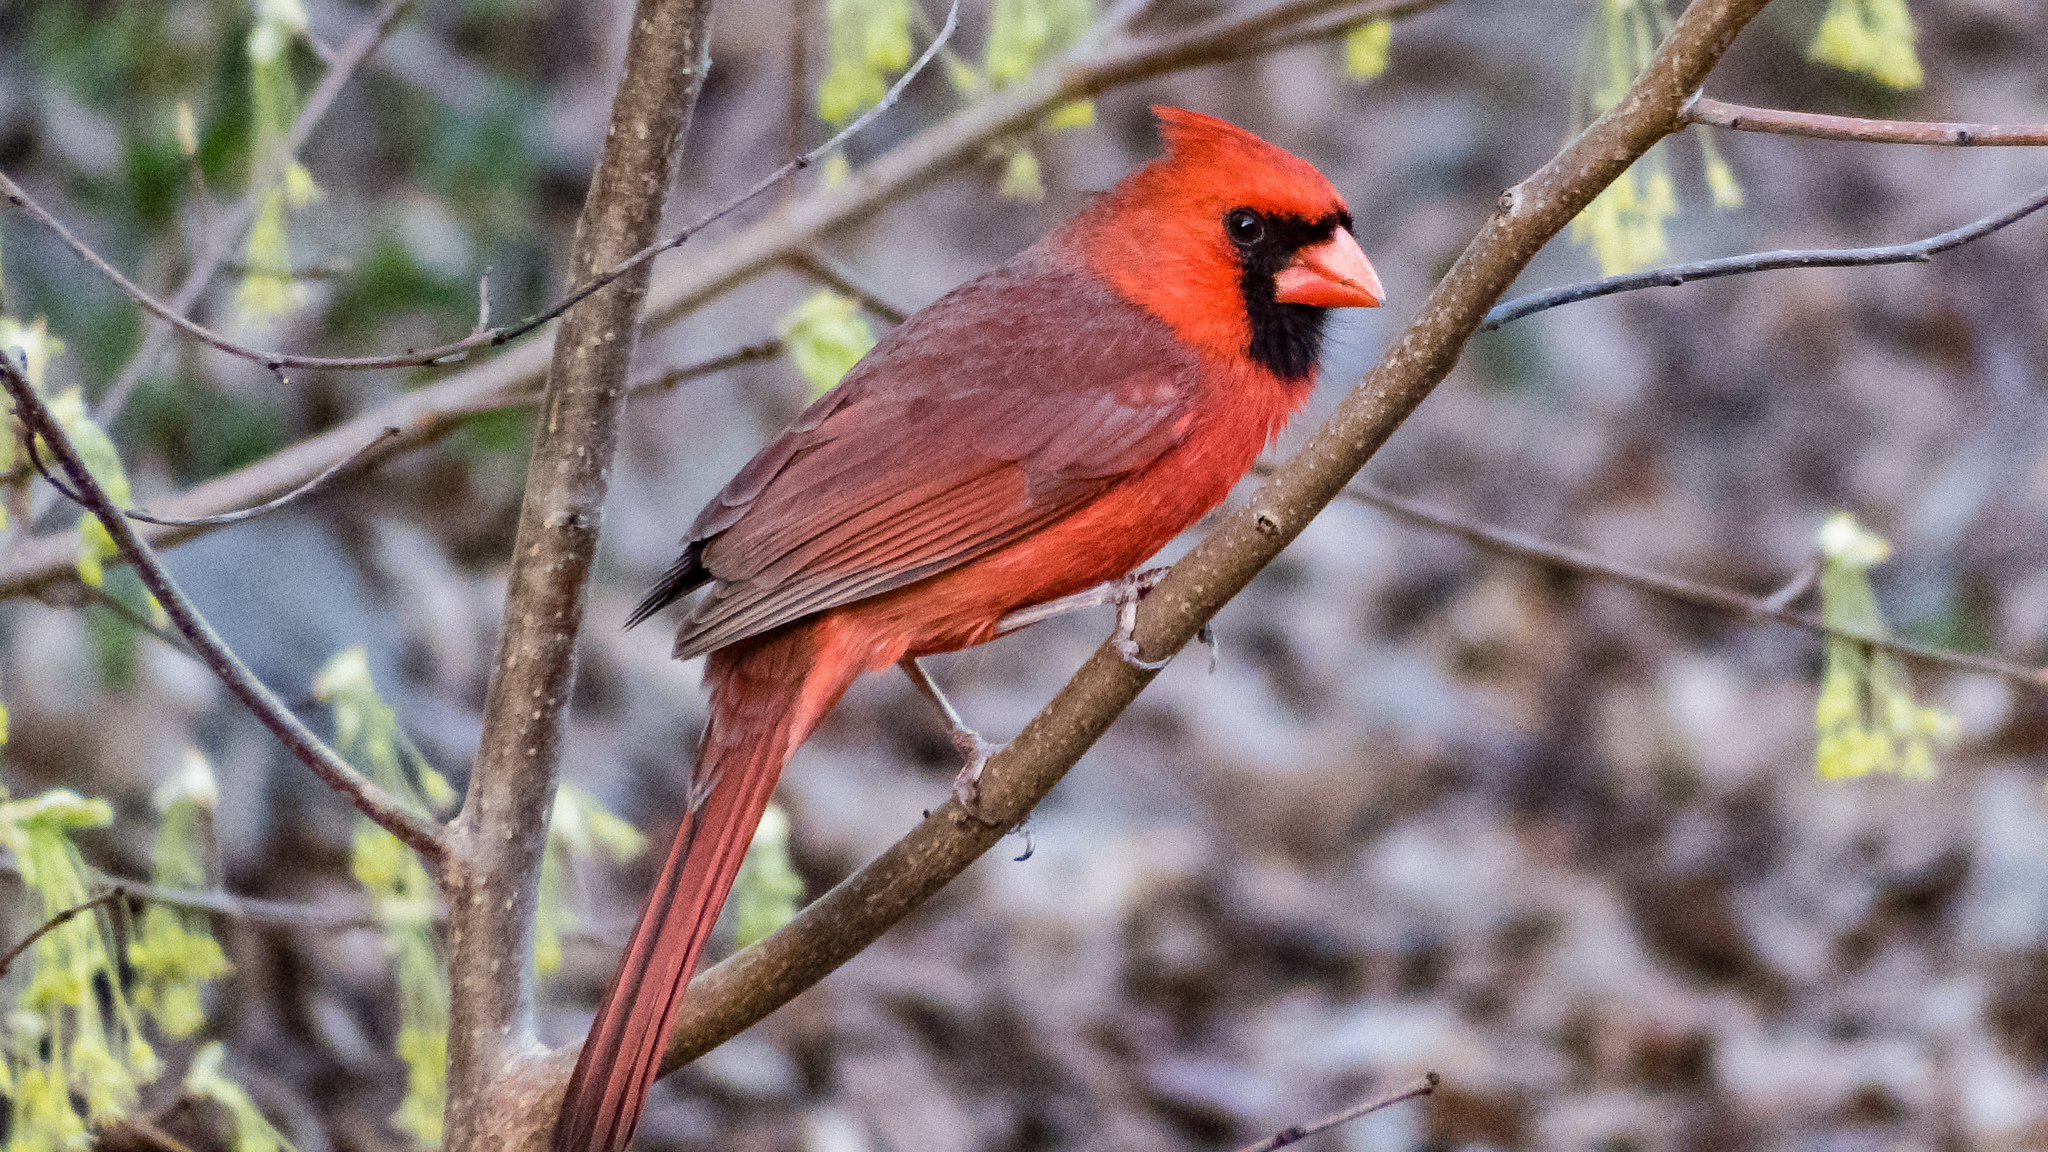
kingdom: Animalia
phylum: Chordata
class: Aves
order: Passeriformes
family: Cardinalidae
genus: Cardinalis
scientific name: Cardinalis cardinalis
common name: Northern cardinal
